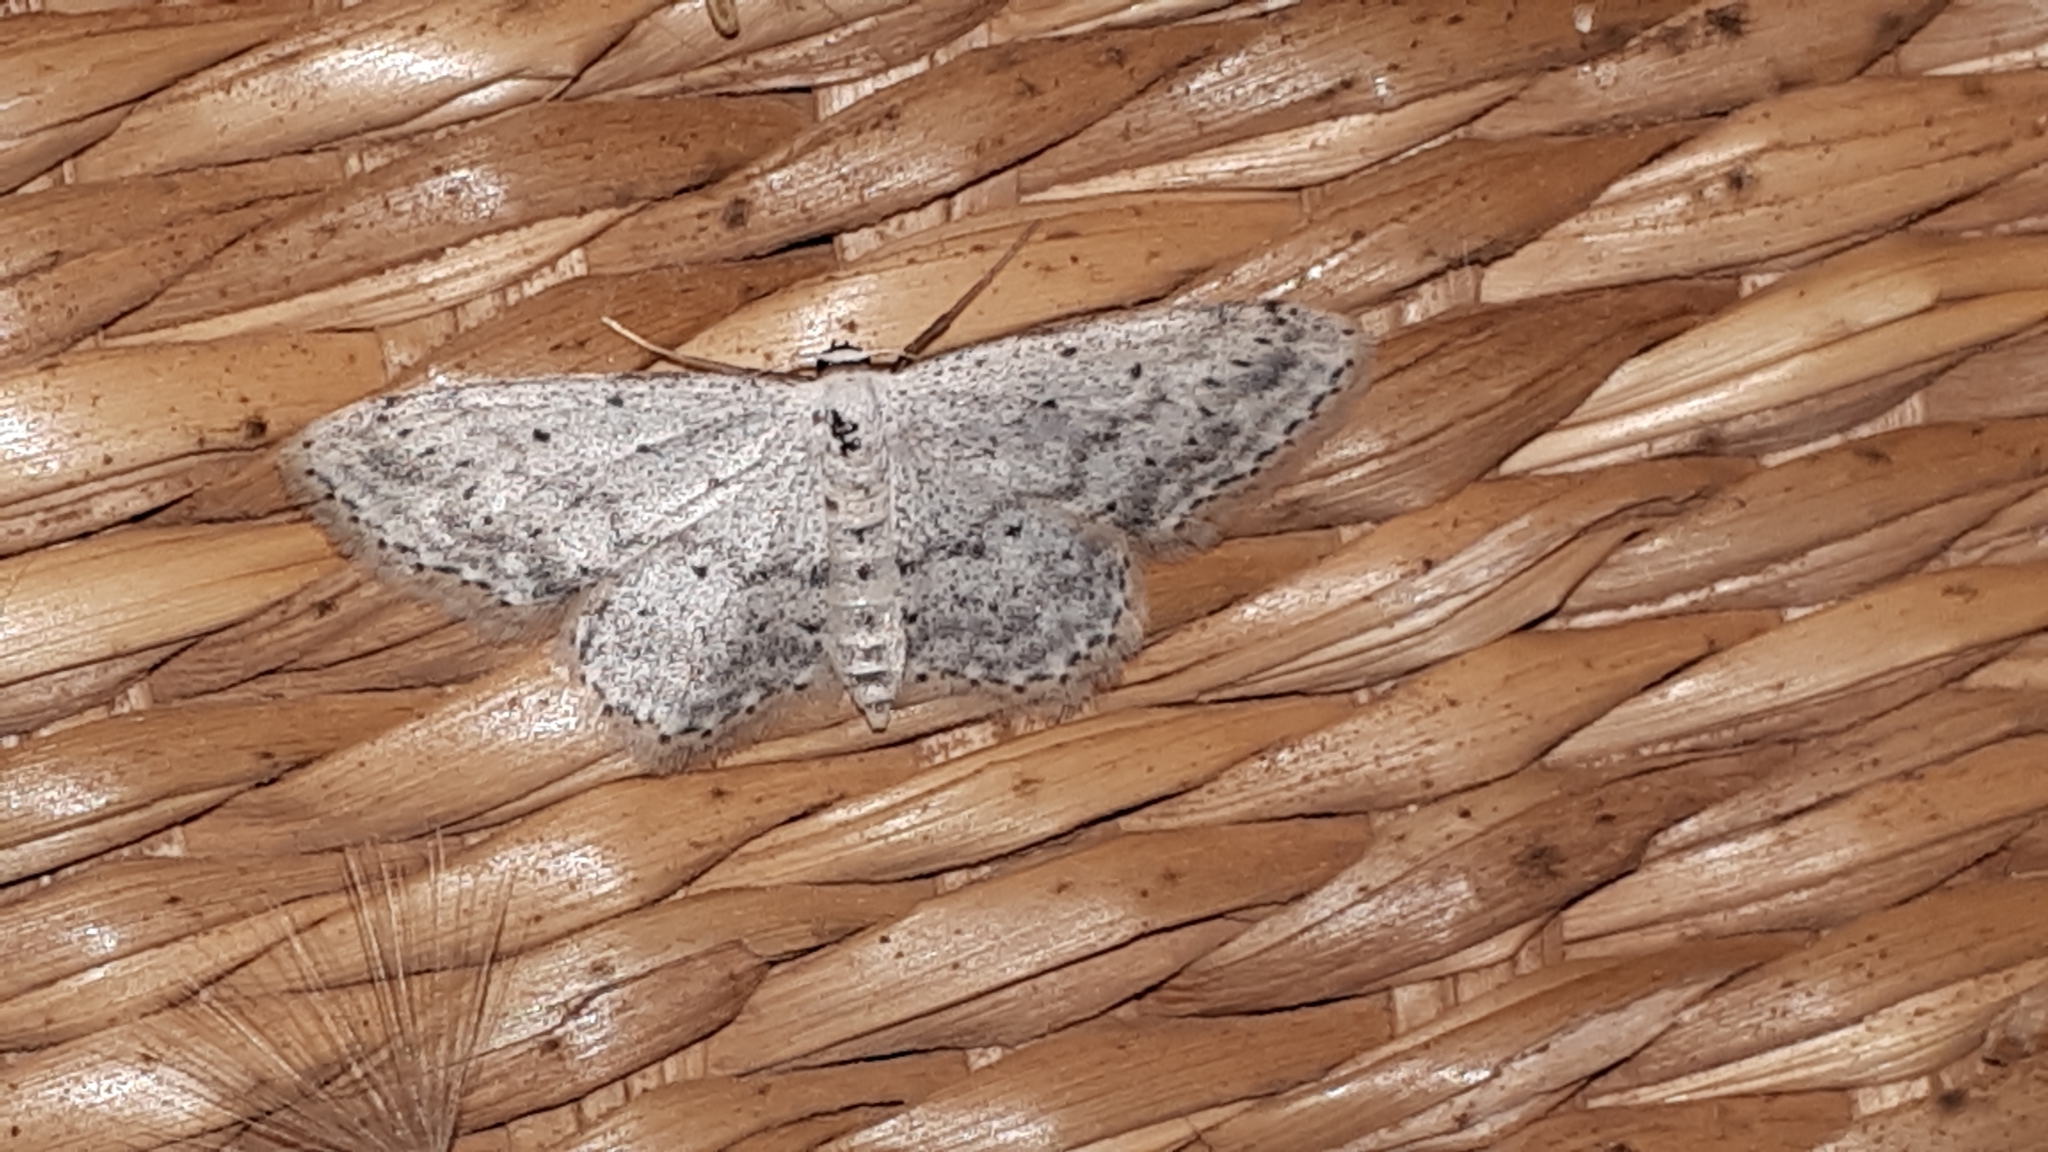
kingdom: Animalia
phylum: Arthropoda
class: Insecta
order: Lepidoptera
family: Geometridae
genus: Idaea
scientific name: Idaea seriata
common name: Small dusty wave
